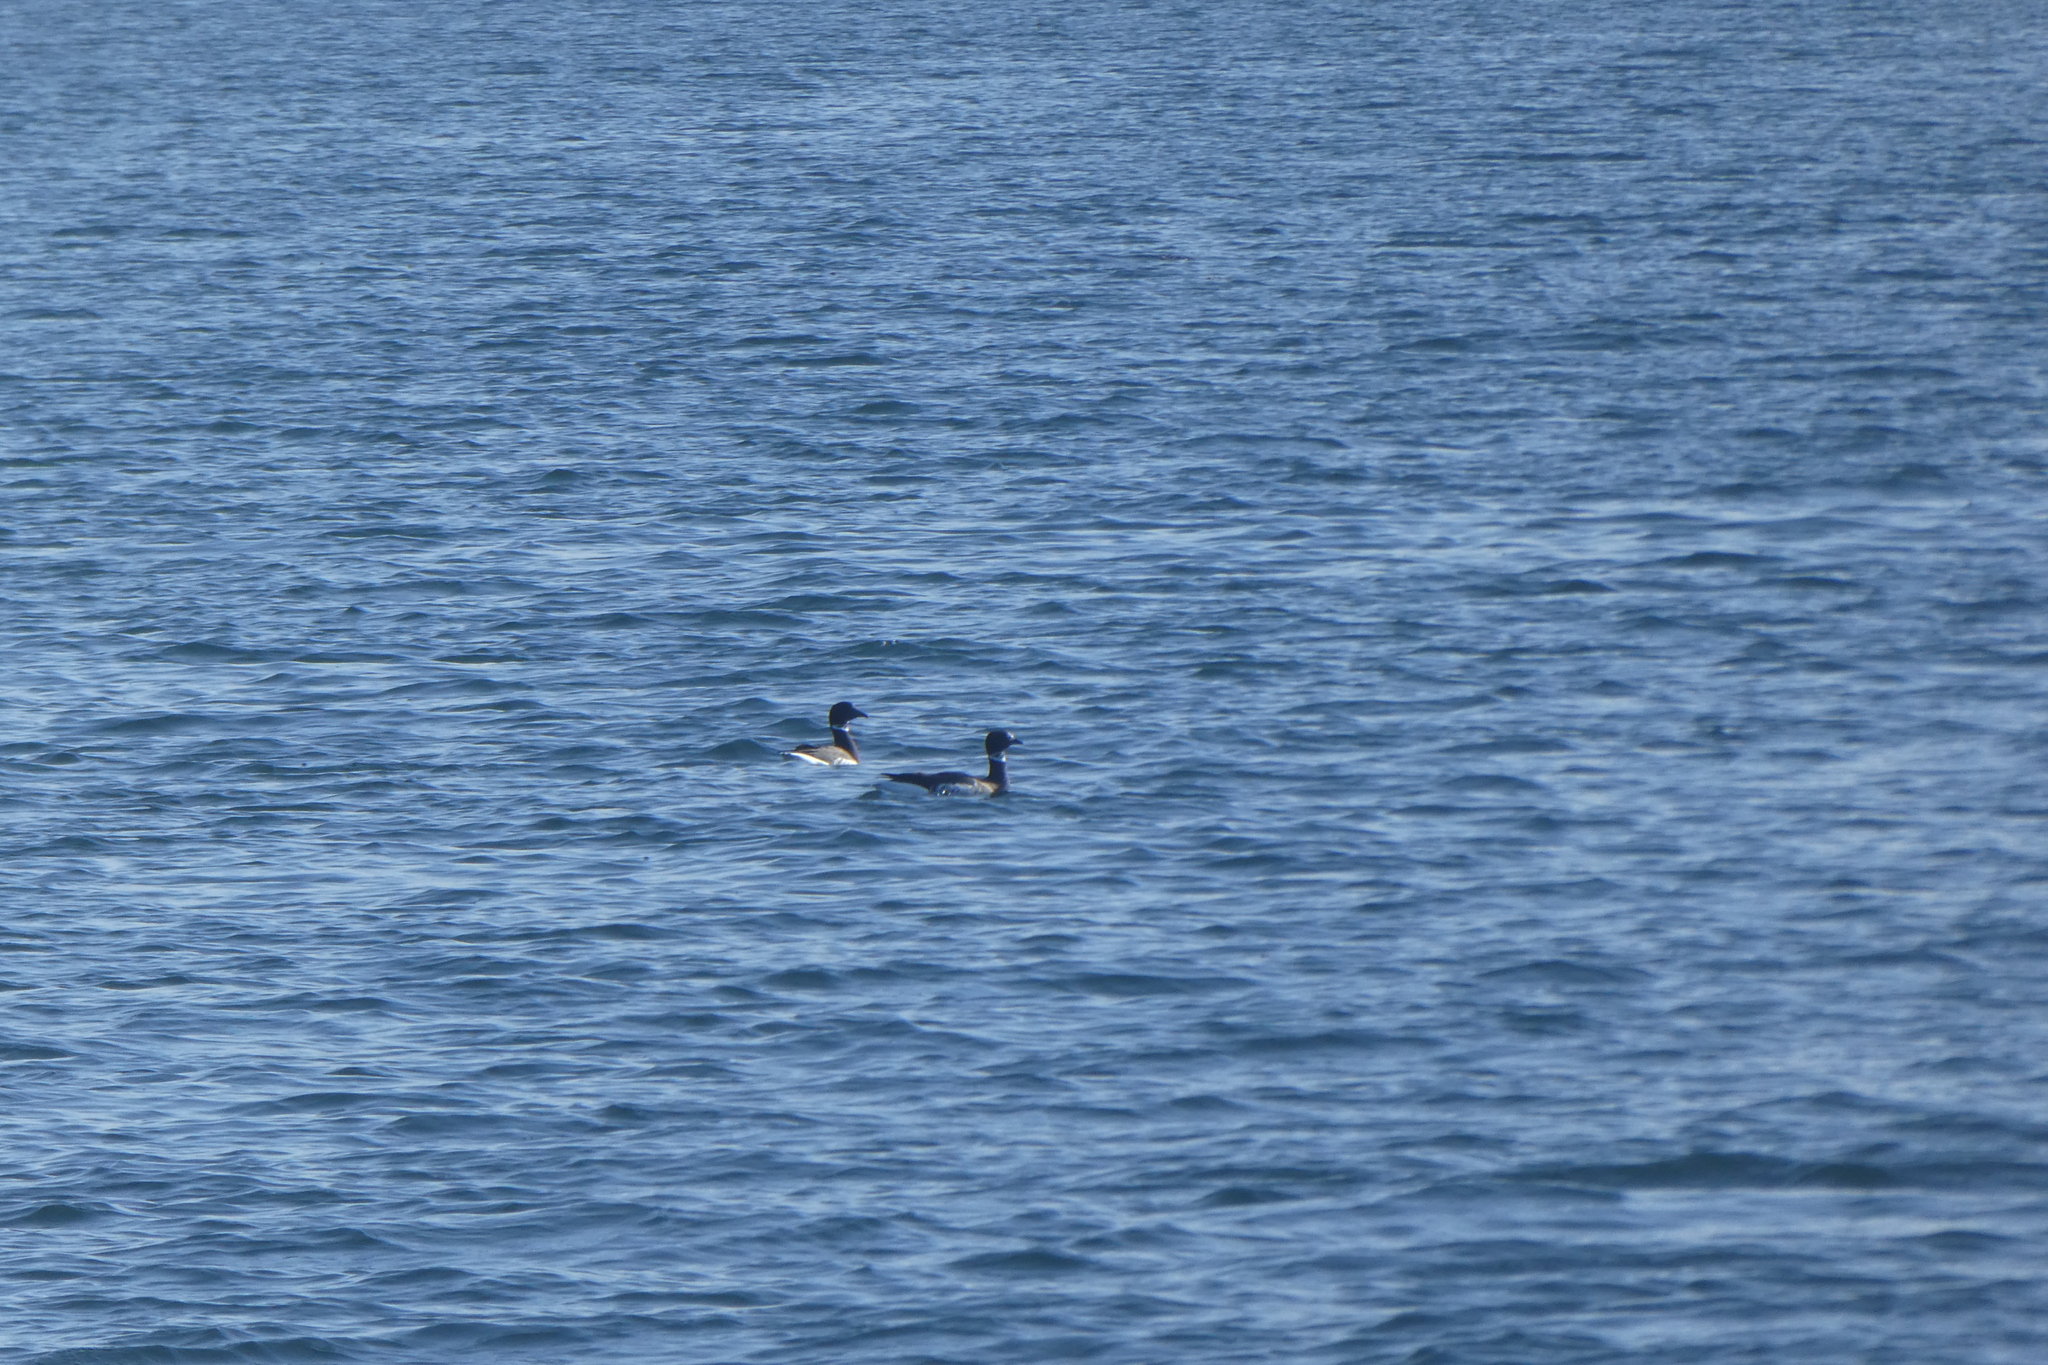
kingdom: Animalia
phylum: Chordata
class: Aves
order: Anseriformes
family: Anatidae
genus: Branta
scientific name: Branta bernicla
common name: Brant goose
